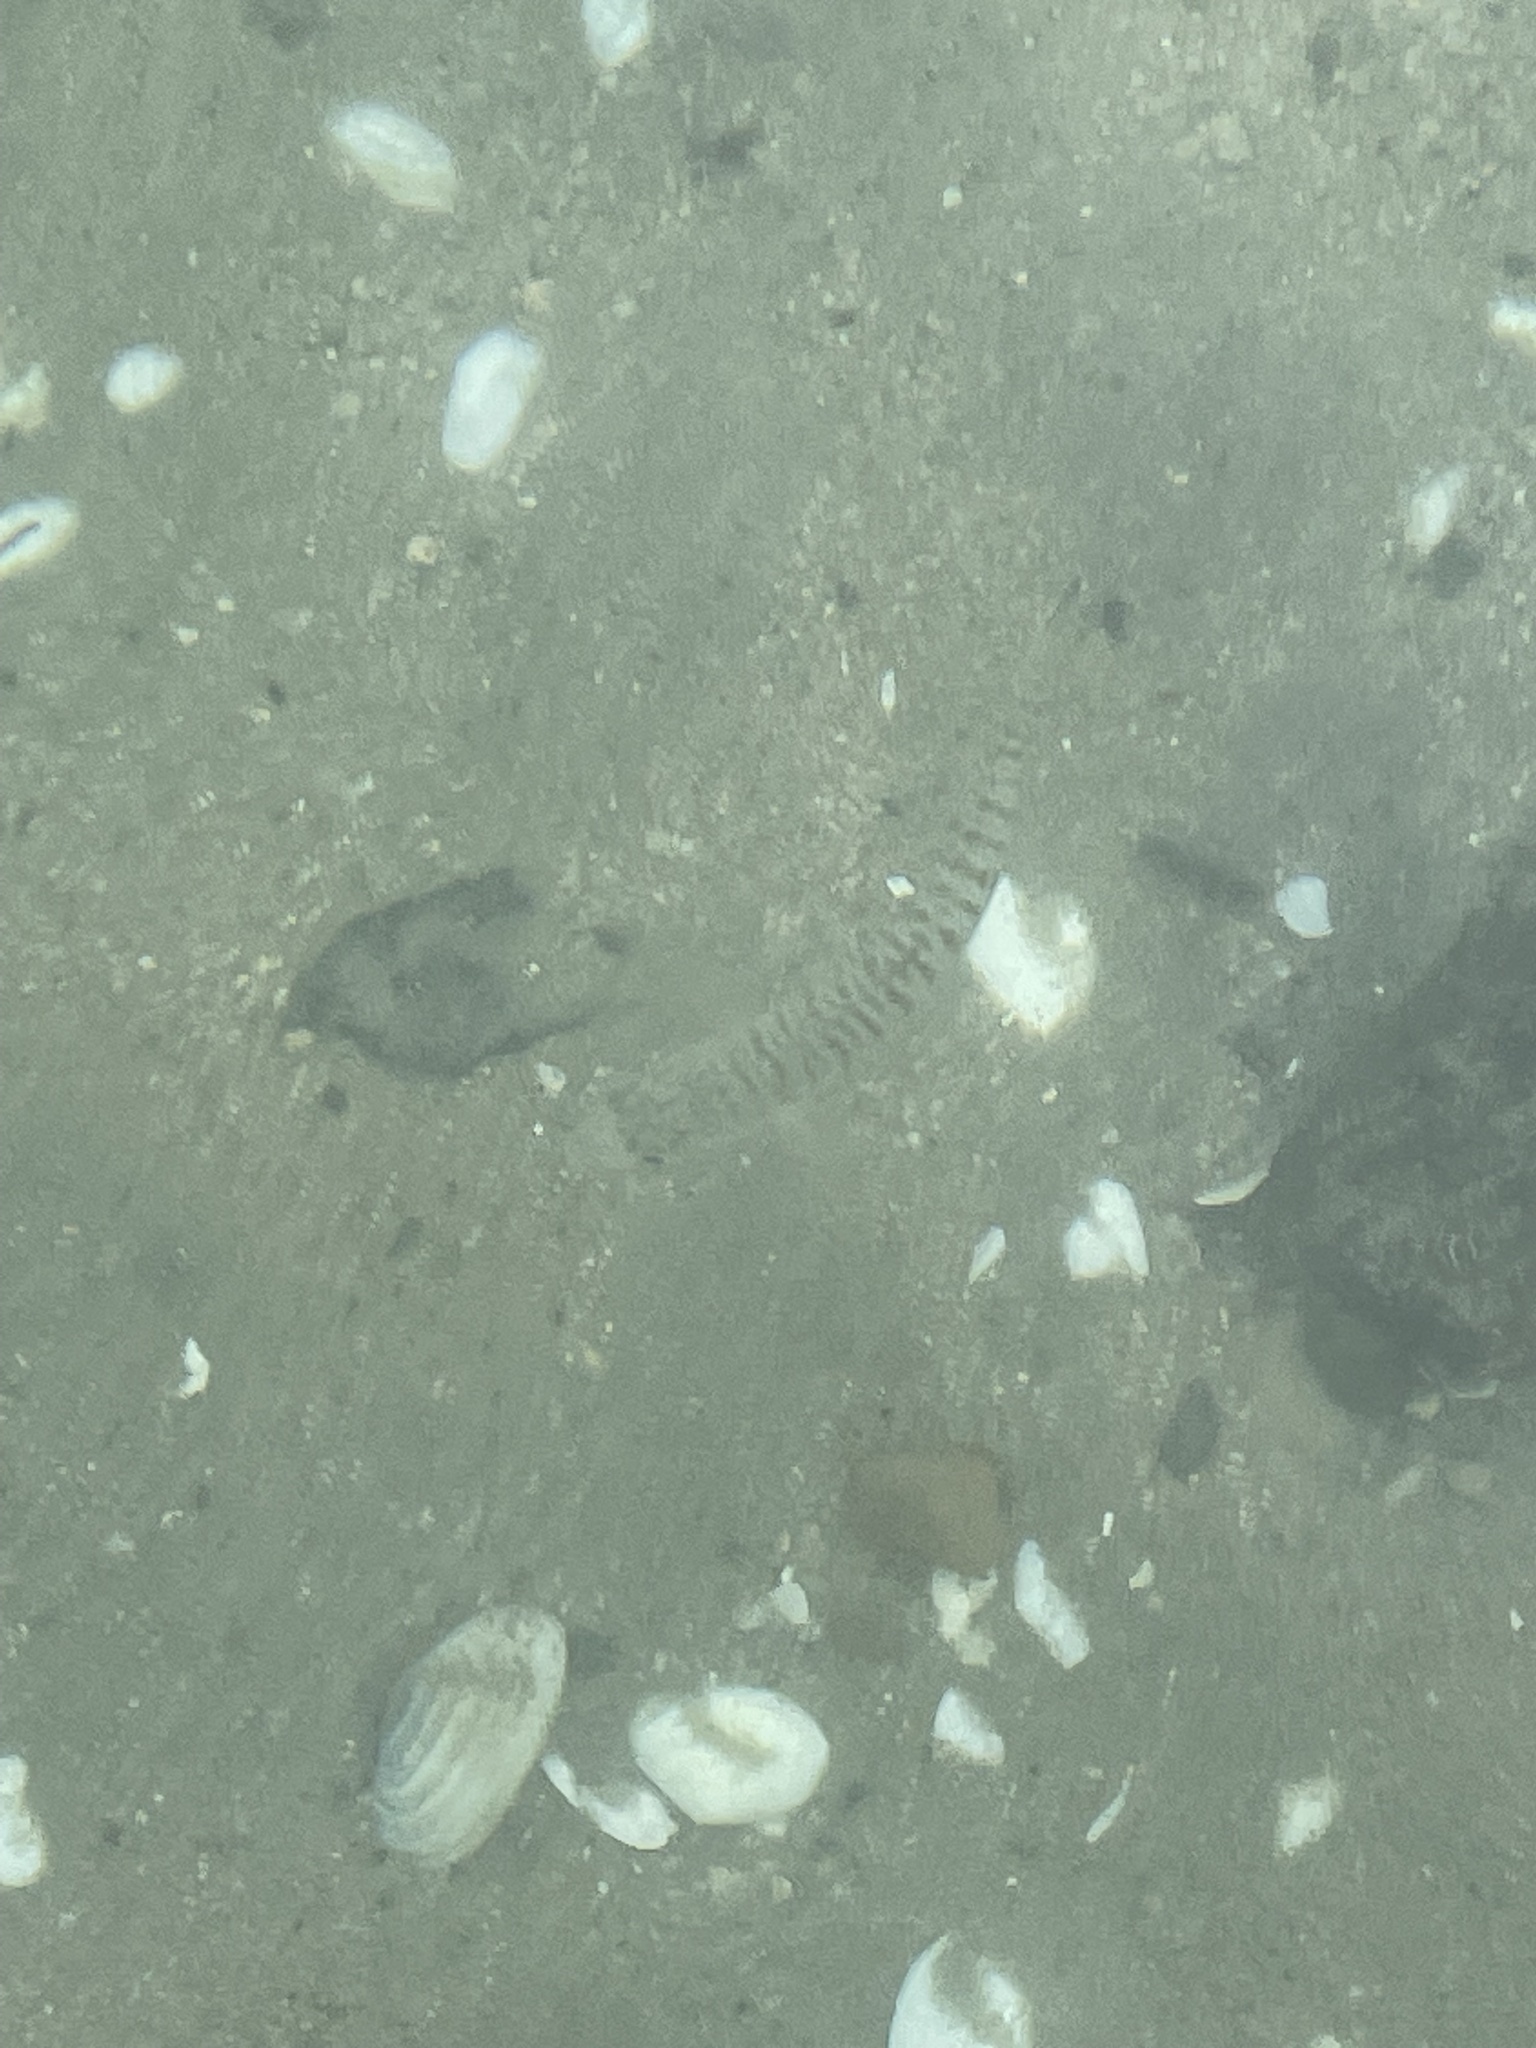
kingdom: Animalia
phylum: Chordata
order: Perciformes
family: Arripidae
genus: Arripis
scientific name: Arripis trutta
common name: Kahawai
